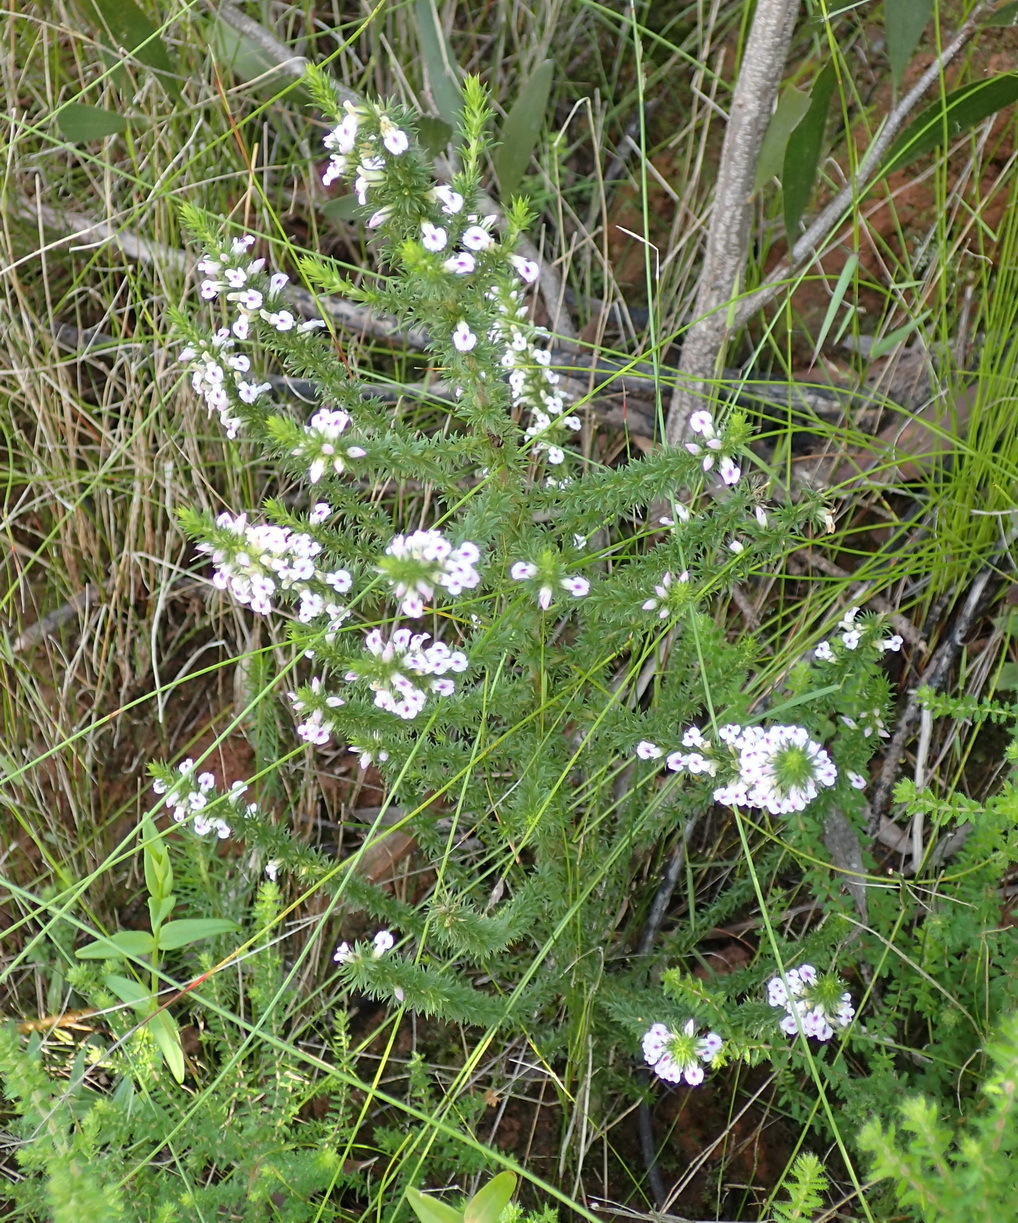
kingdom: Plantae
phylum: Tracheophyta
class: Magnoliopsida
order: Fabales
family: Polygalaceae
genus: Muraltia
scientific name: Muraltia ericifolia
